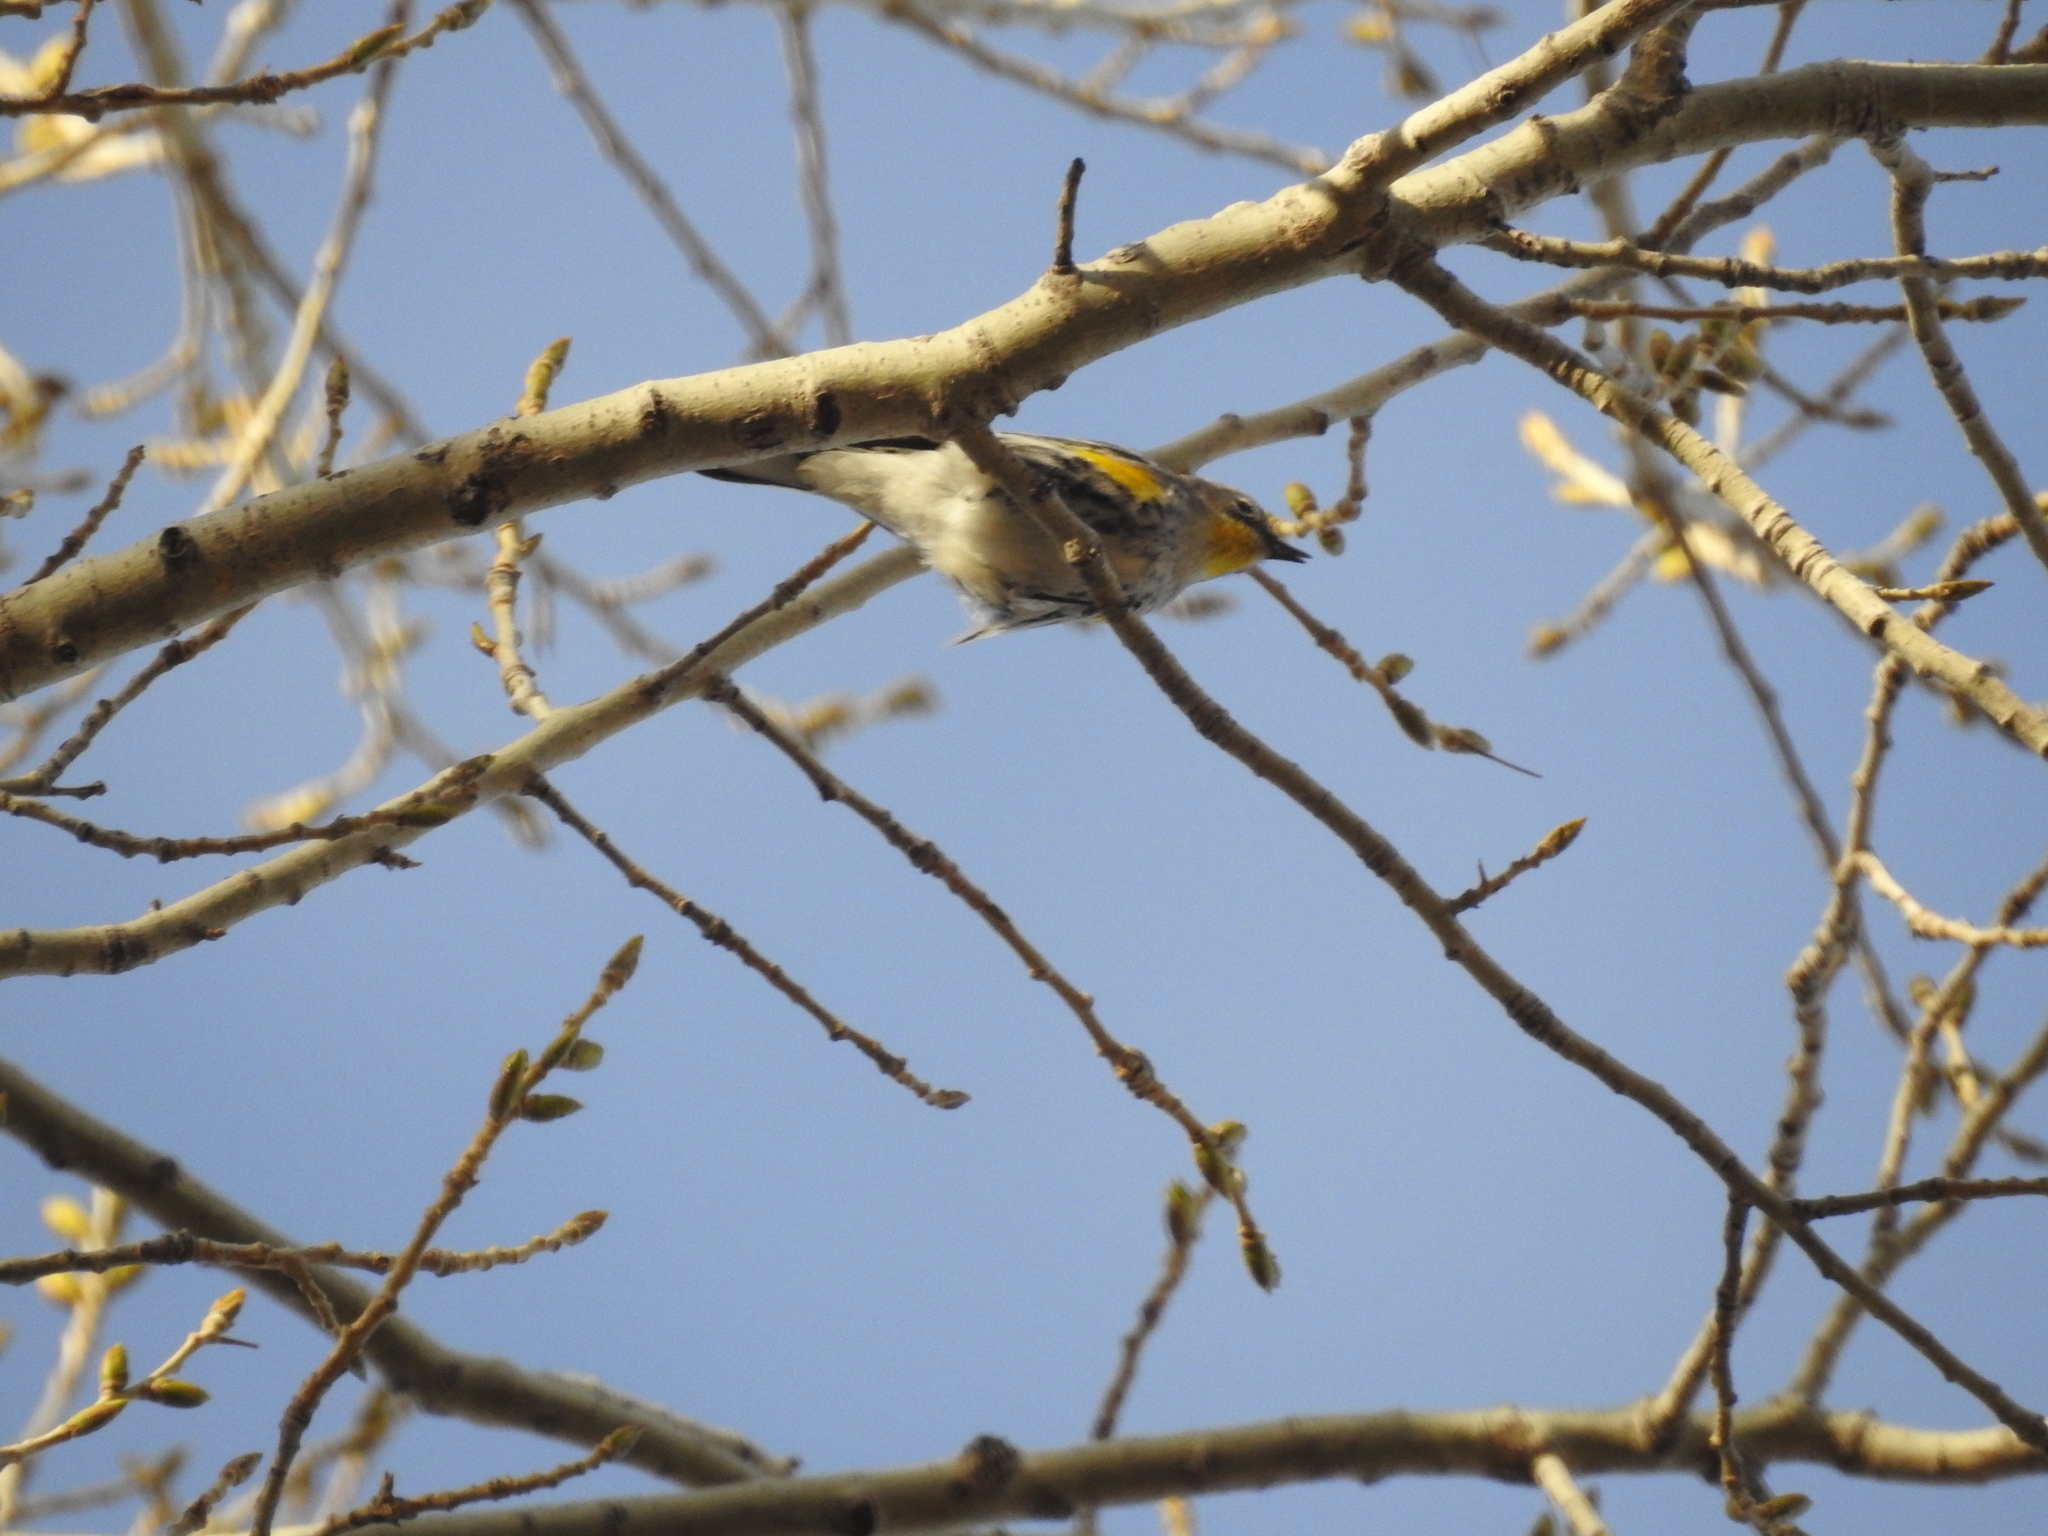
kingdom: Animalia
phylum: Chordata
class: Aves
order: Passeriformes
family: Parulidae
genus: Setophaga
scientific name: Setophaga coronata
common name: Myrtle warbler
